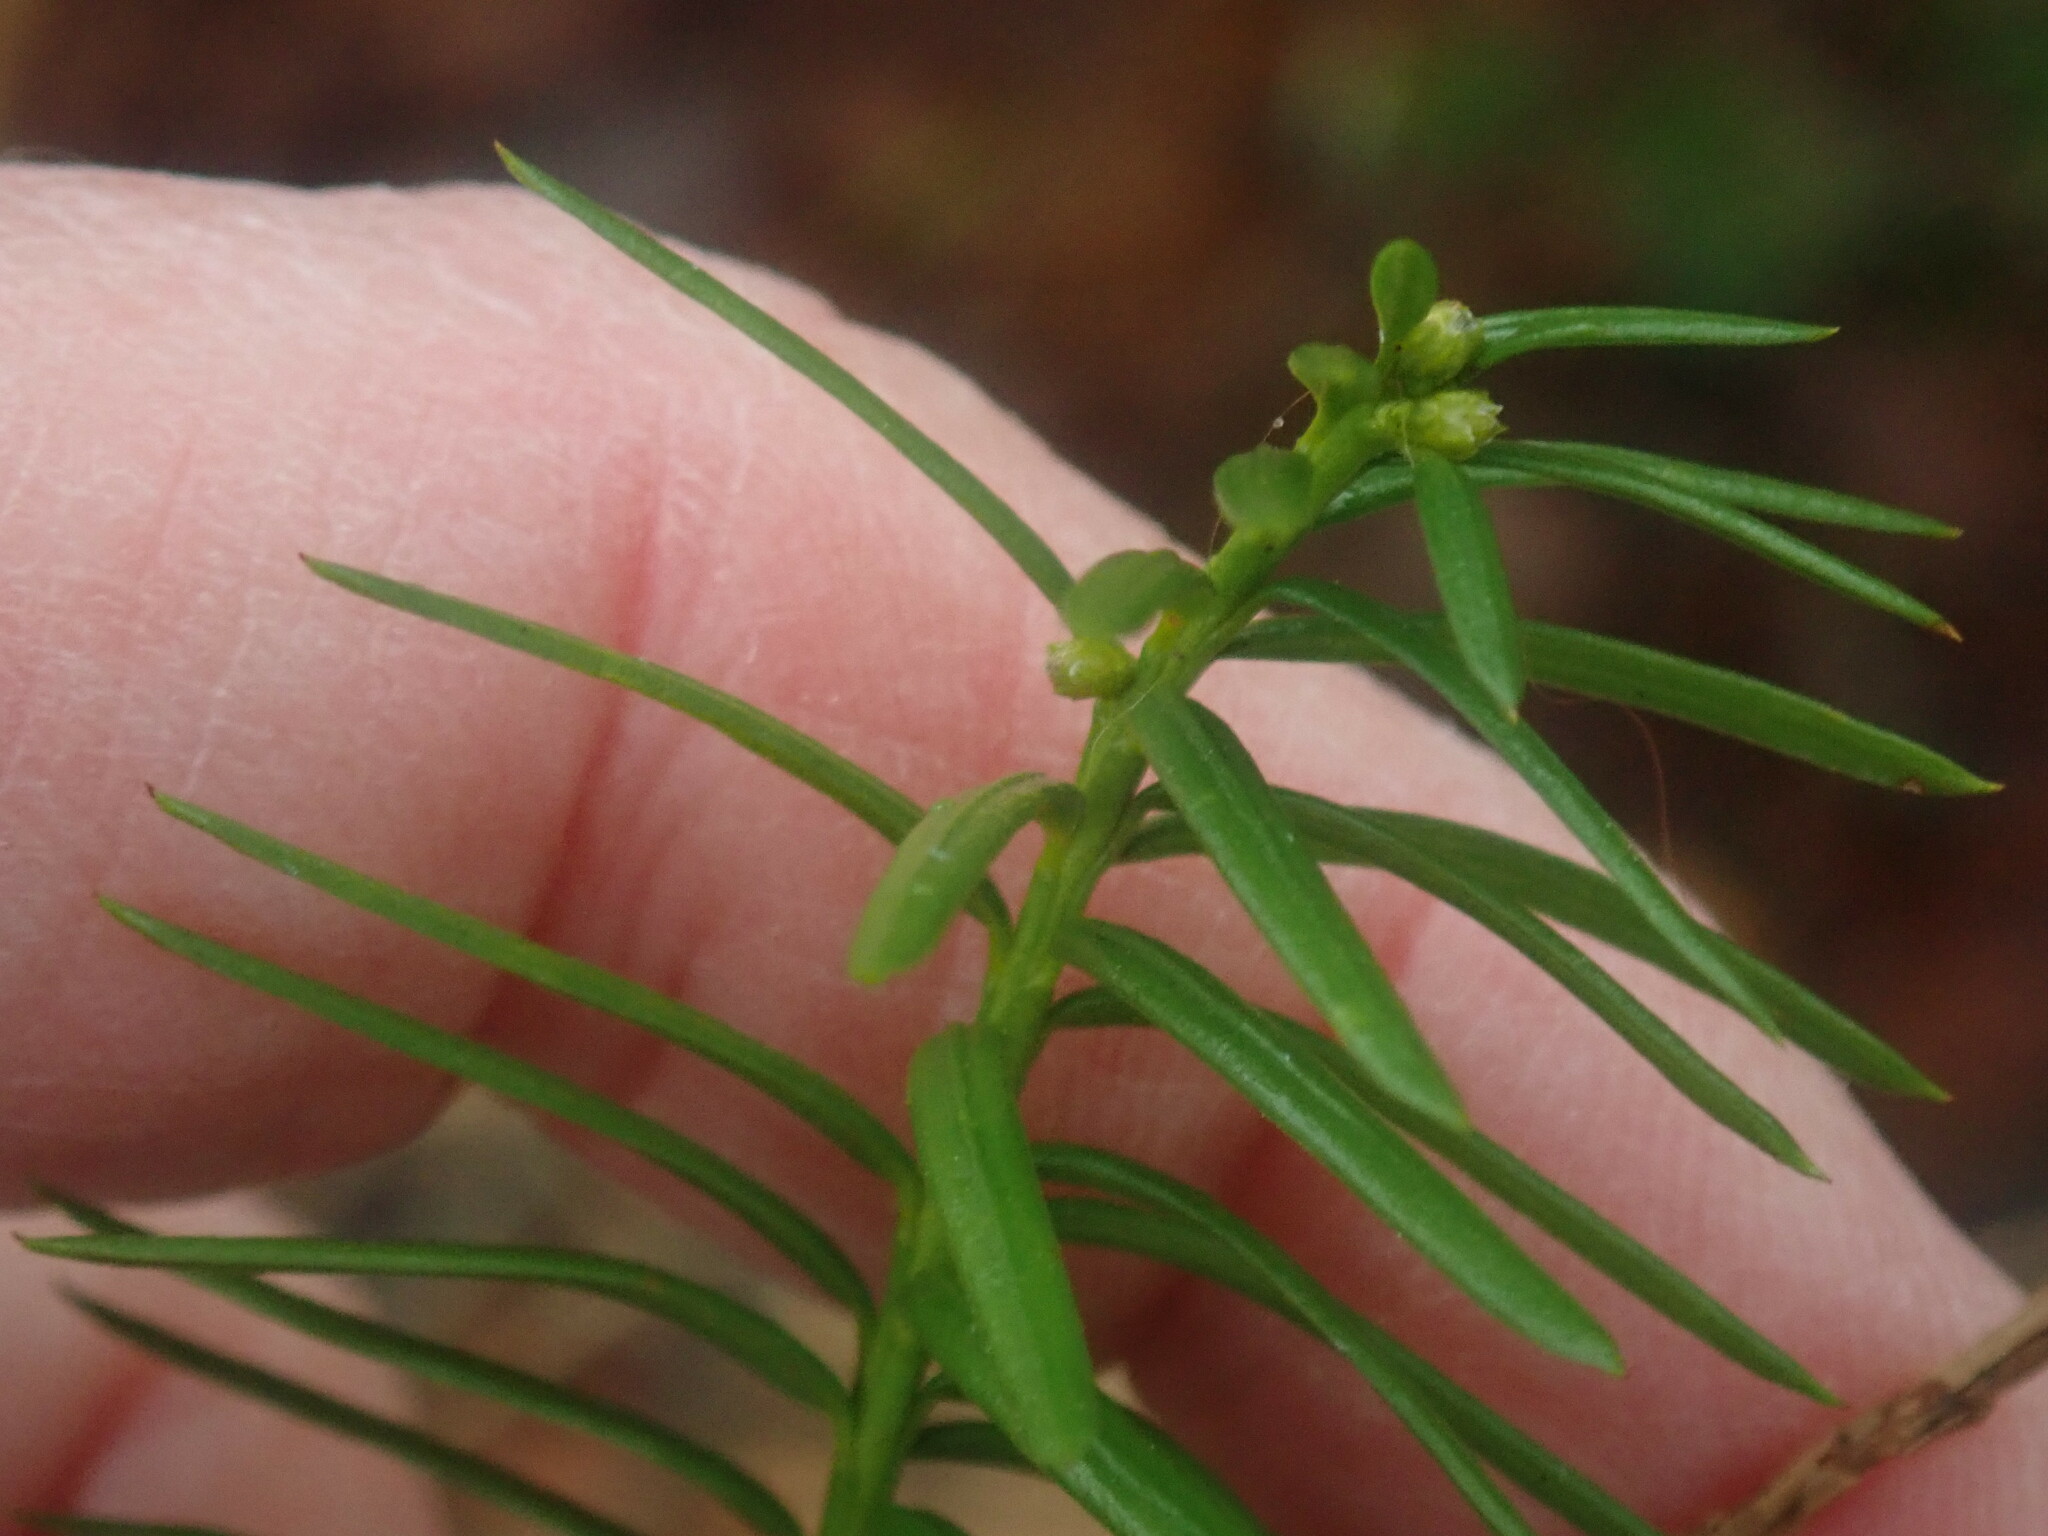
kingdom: Plantae
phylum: Tracheophyta
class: Pinopsida
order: Pinales
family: Taxaceae
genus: Taxus
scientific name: Taxus canadensis
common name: American yew
